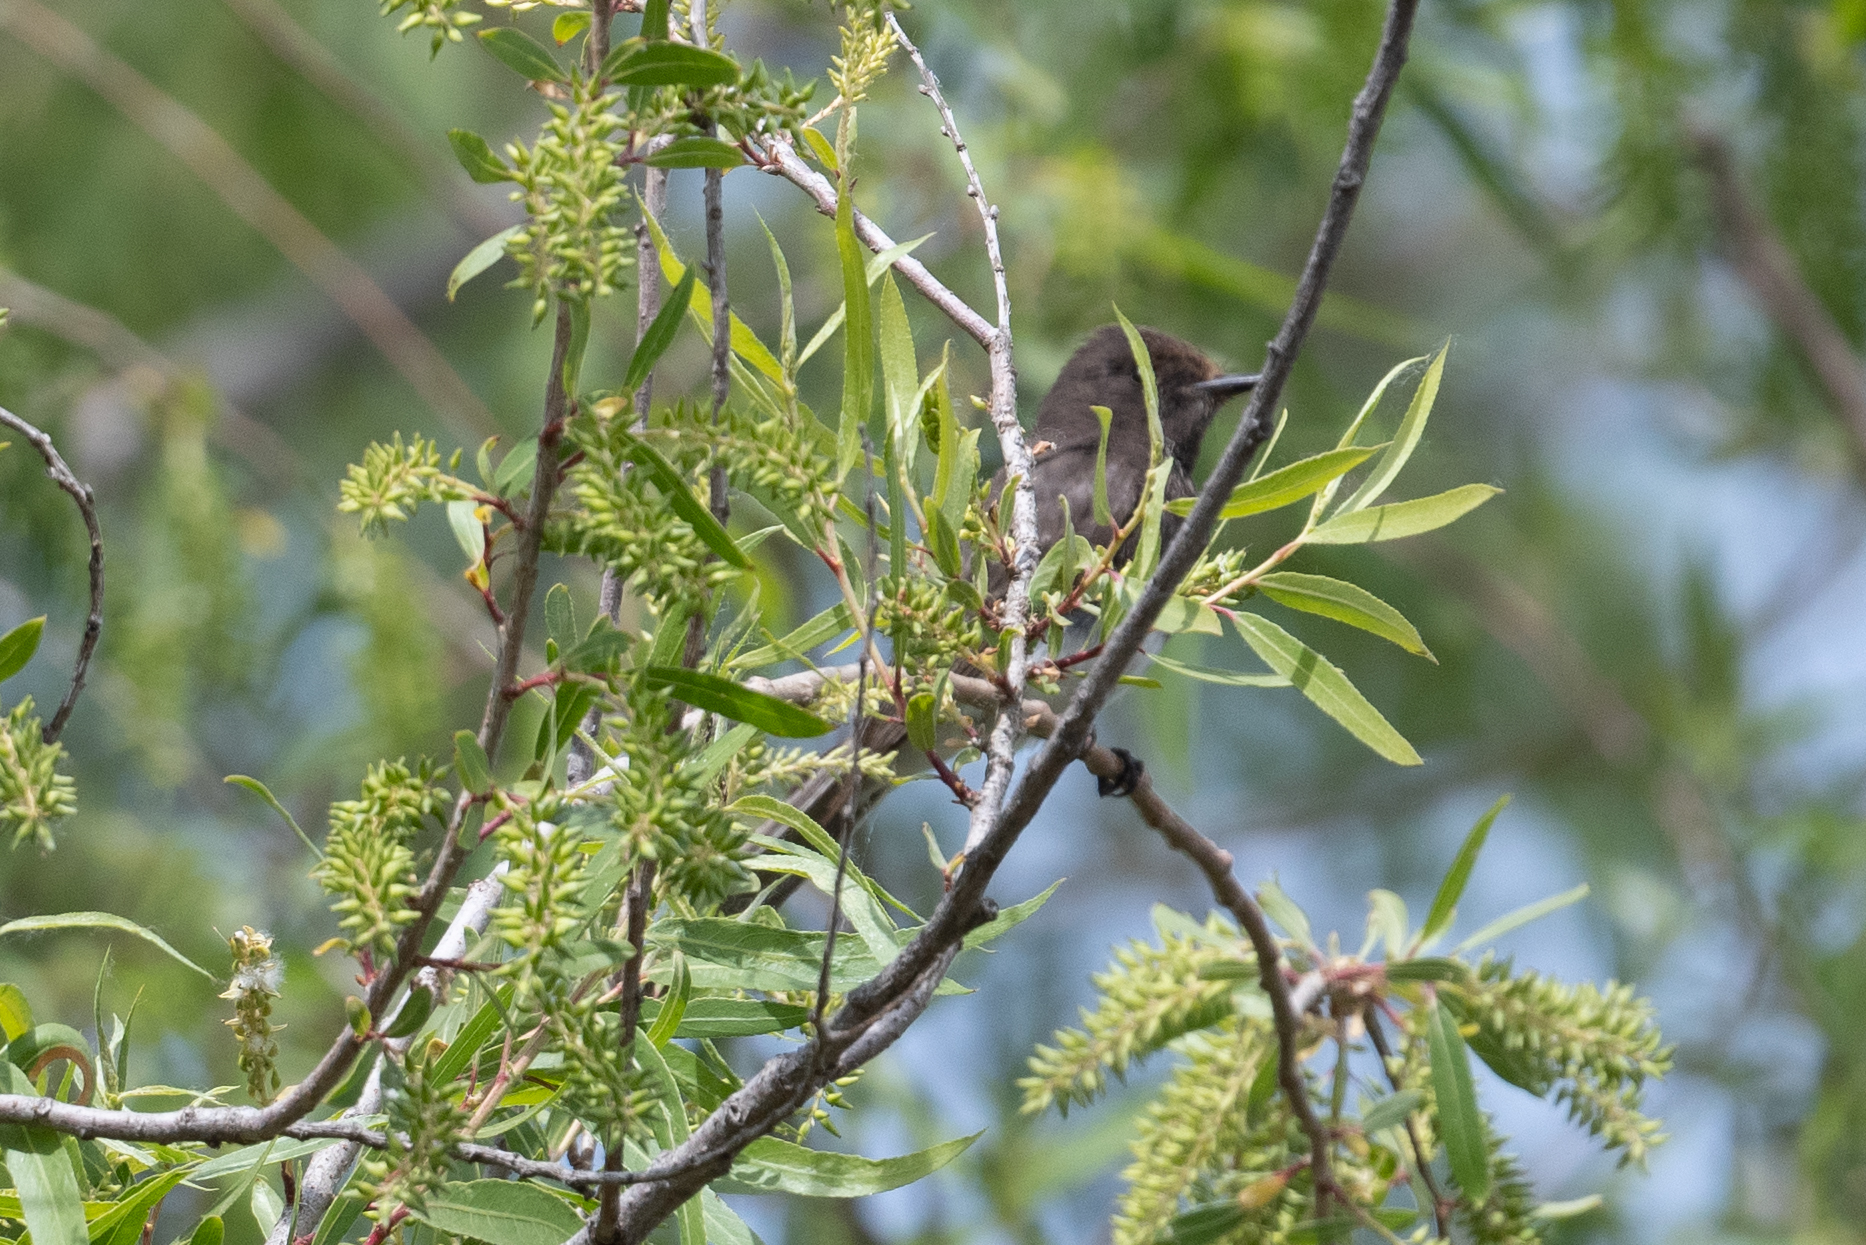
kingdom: Animalia
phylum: Chordata
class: Aves
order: Passeriformes
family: Tyrannidae
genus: Sayornis
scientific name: Sayornis nigricans
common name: Black phoebe
